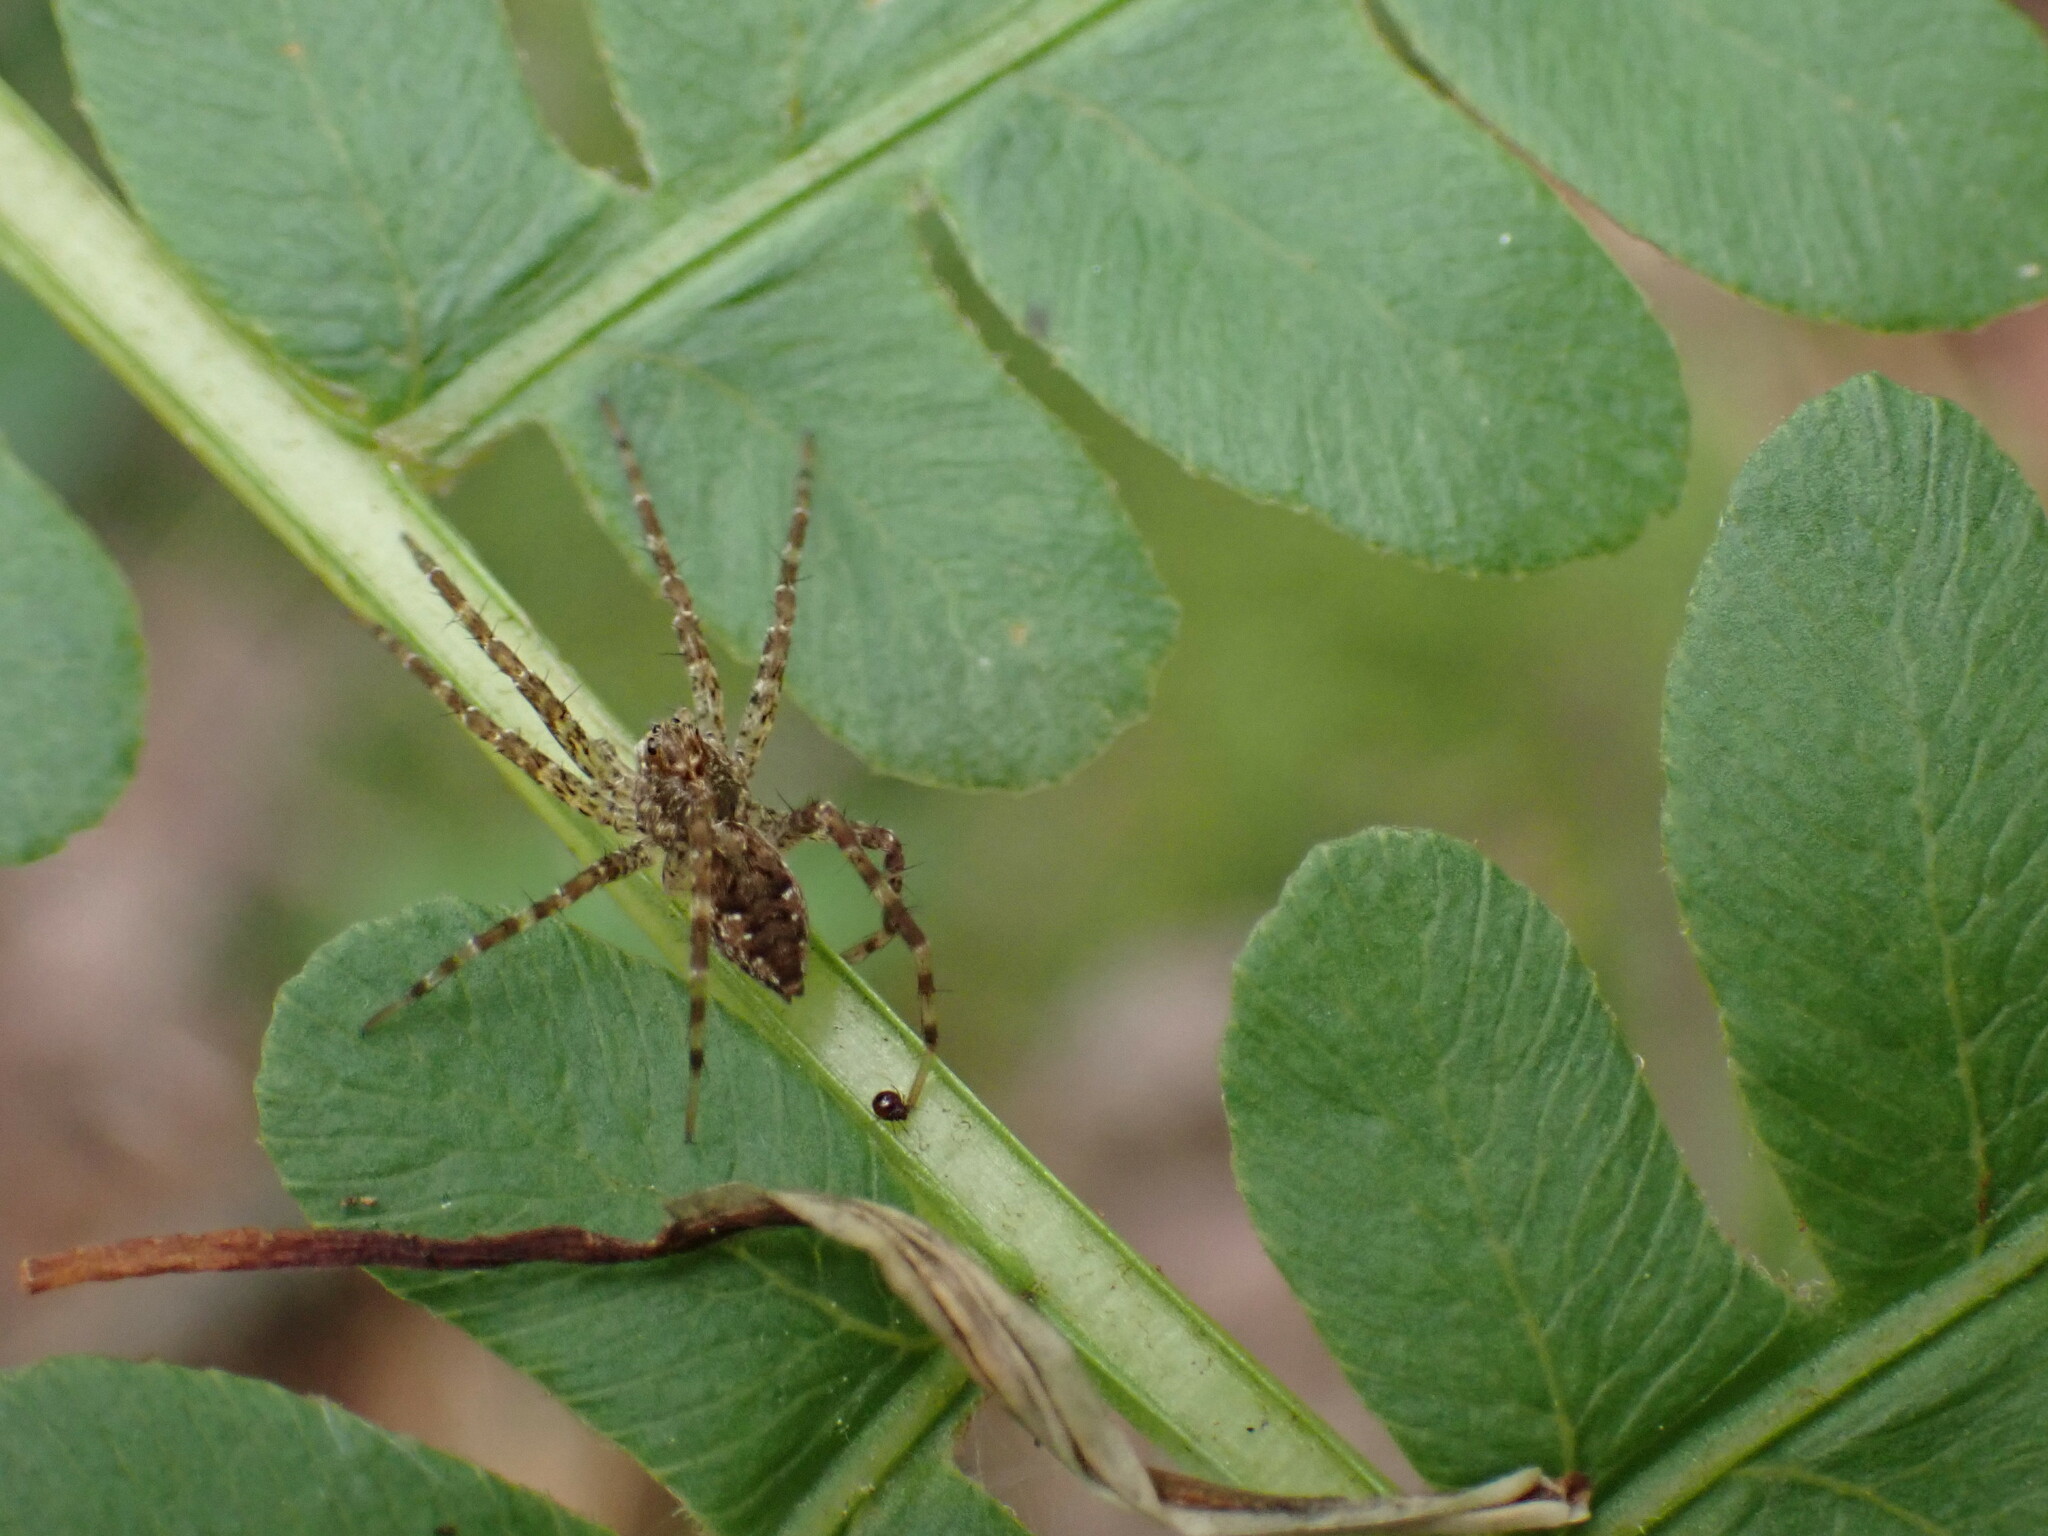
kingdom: Animalia
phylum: Arthropoda
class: Arachnida
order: Araneae
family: Pisauridae
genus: Dolomedes
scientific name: Dolomedes tenebrosus
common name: Dark fishing spider
